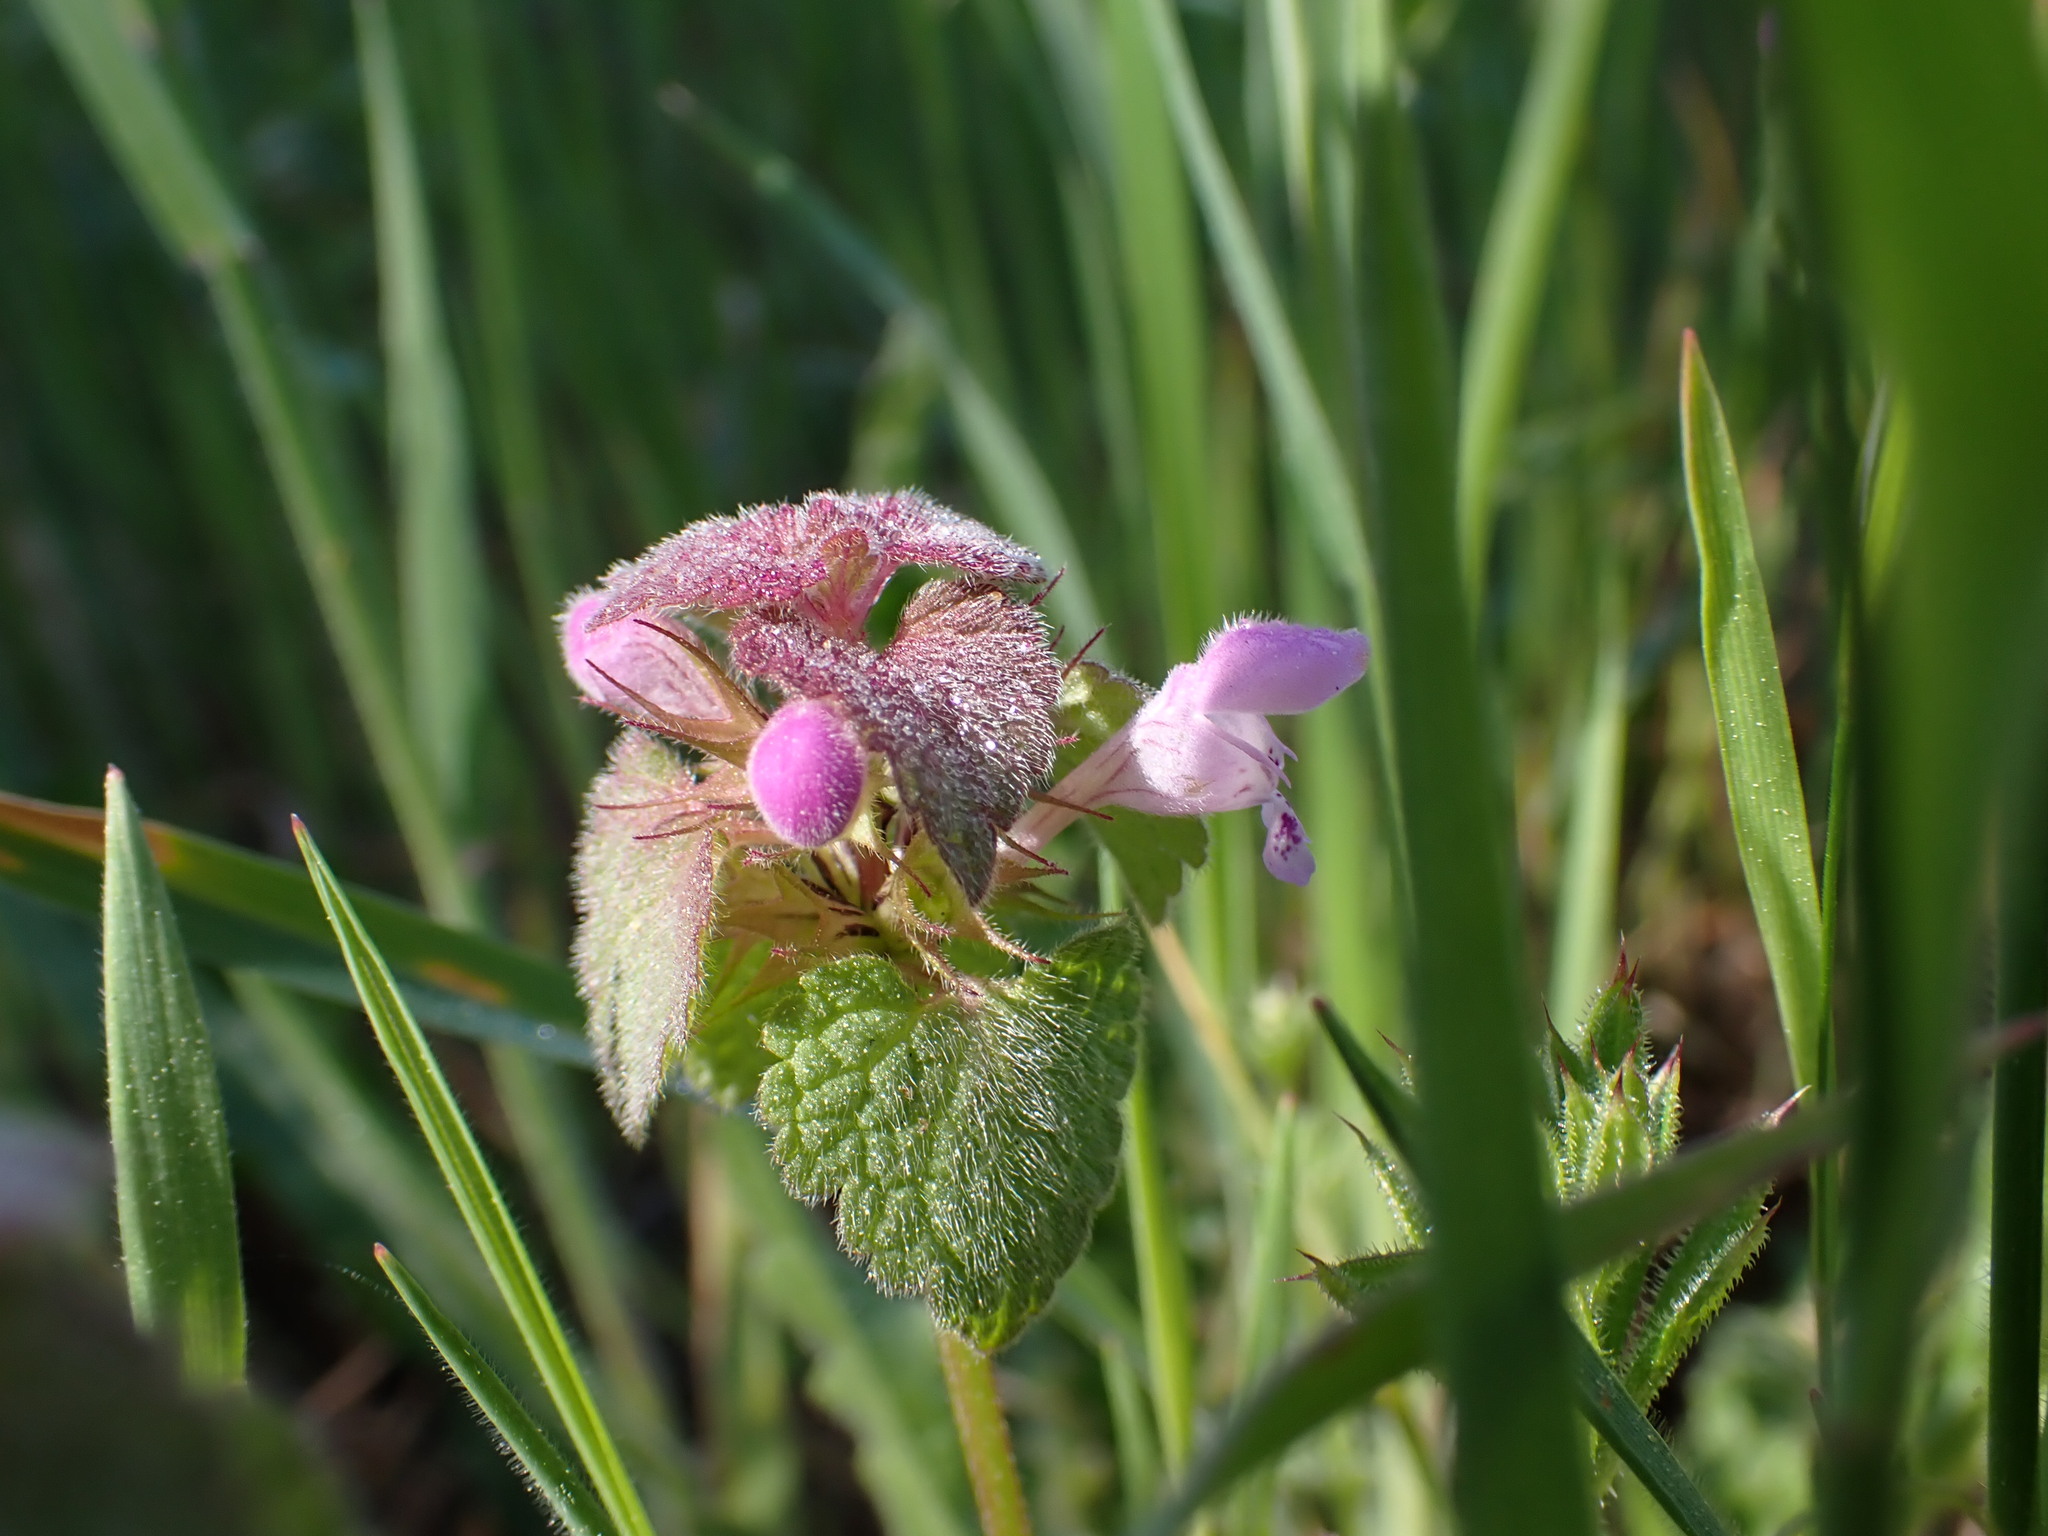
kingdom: Plantae
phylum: Tracheophyta
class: Magnoliopsida
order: Lamiales
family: Lamiaceae
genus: Lamium
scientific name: Lamium purpureum
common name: Red dead-nettle
